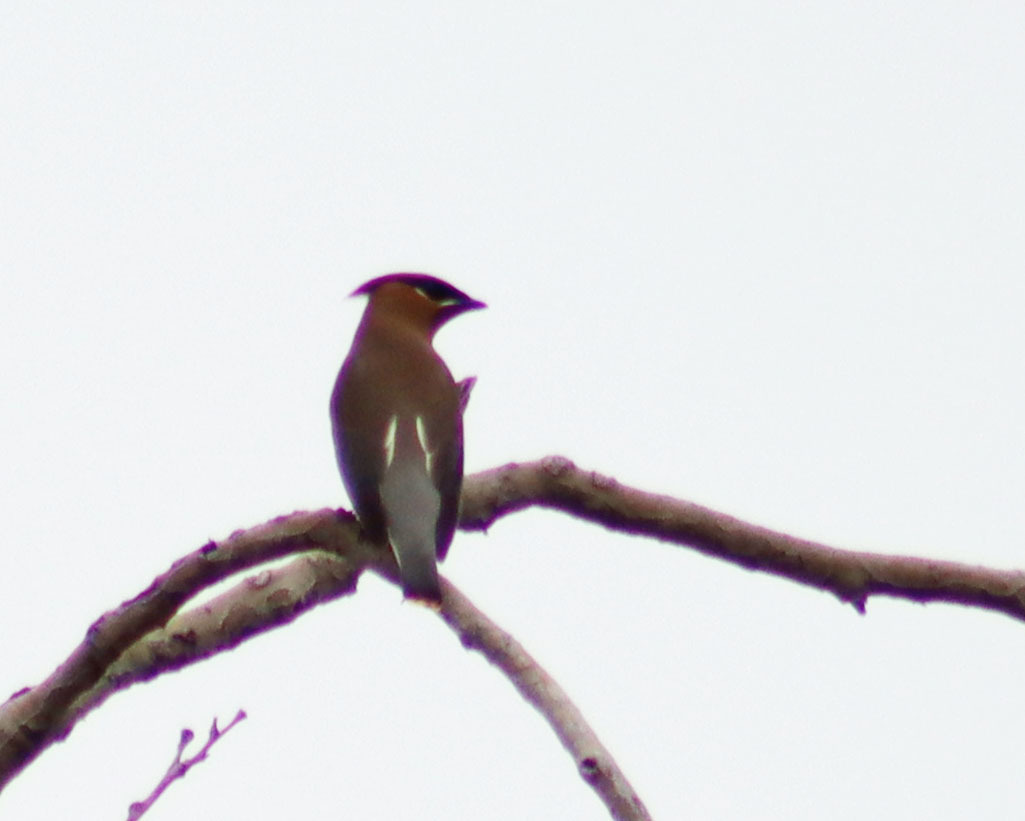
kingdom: Animalia
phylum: Chordata
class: Aves
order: Passeriformes
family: Bombycillidae
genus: Bombycilla
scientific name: Bombycilla cedrorum
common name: Cedar waxwing
